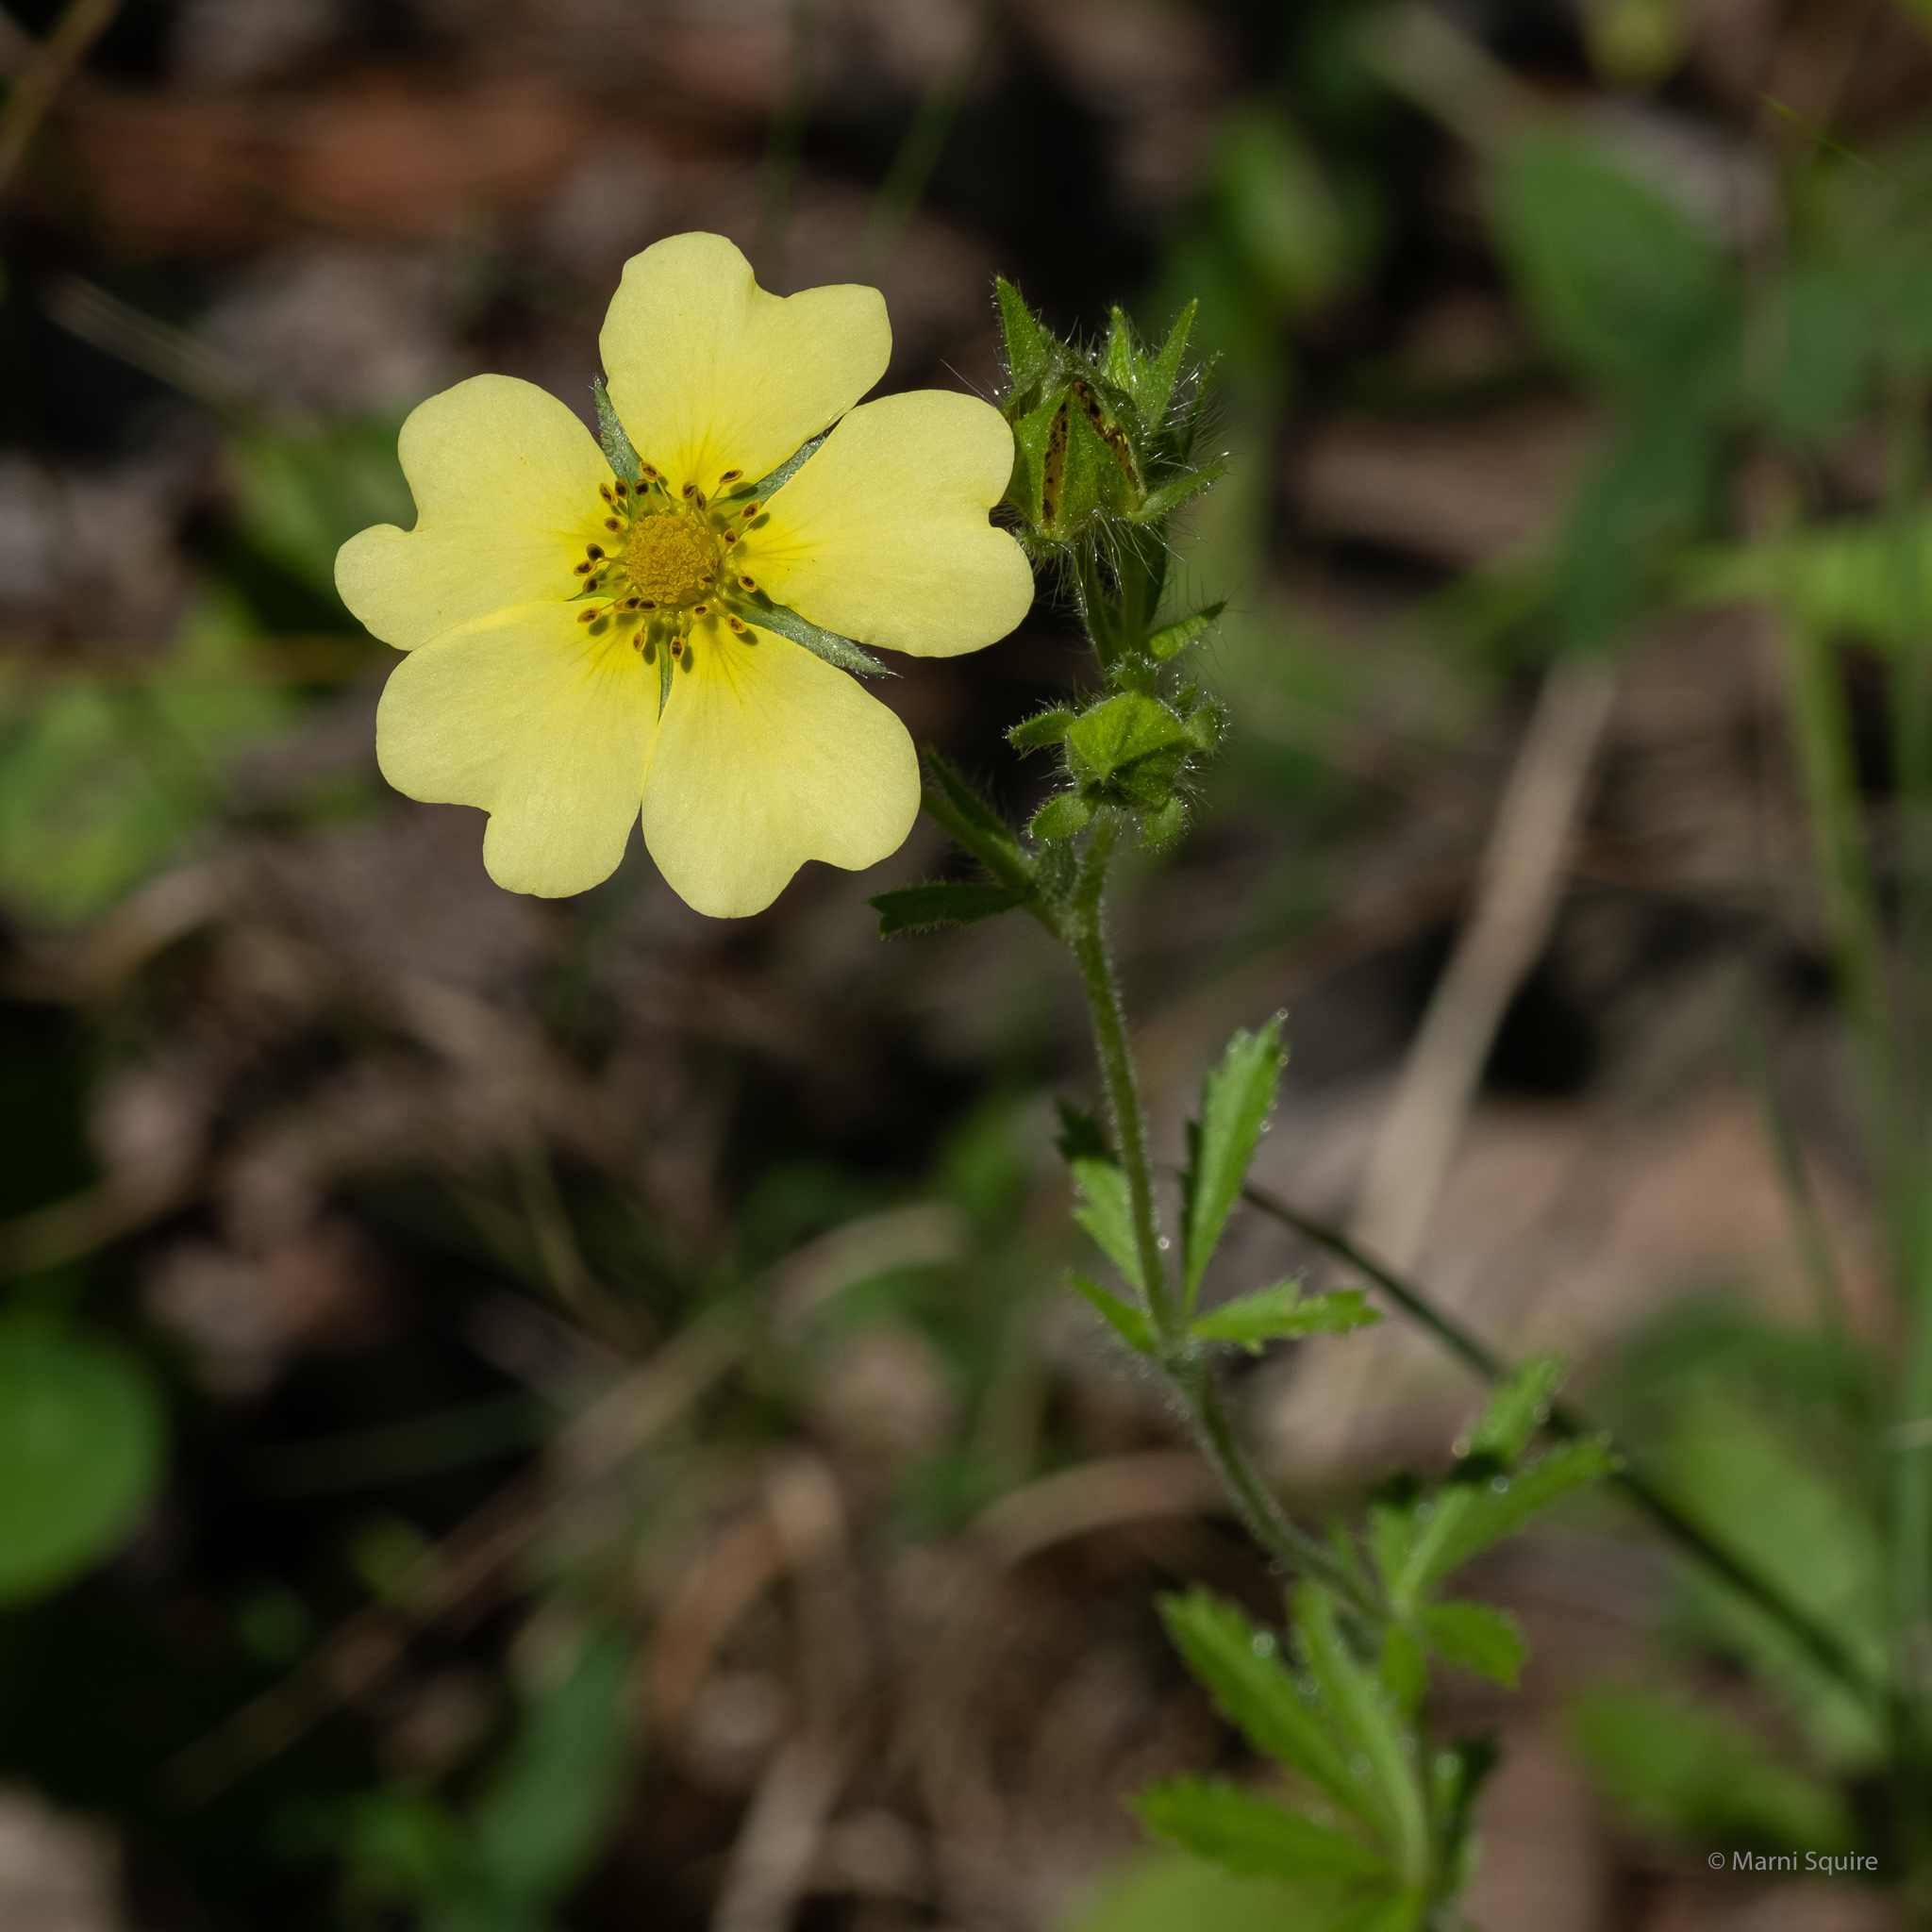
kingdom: Plantae
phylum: Tracheophyta
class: Magnoliopsida
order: Rosales
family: Rosaceae
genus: Potentilla
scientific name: Potentilla recta
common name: Sulphur cinquefoil
